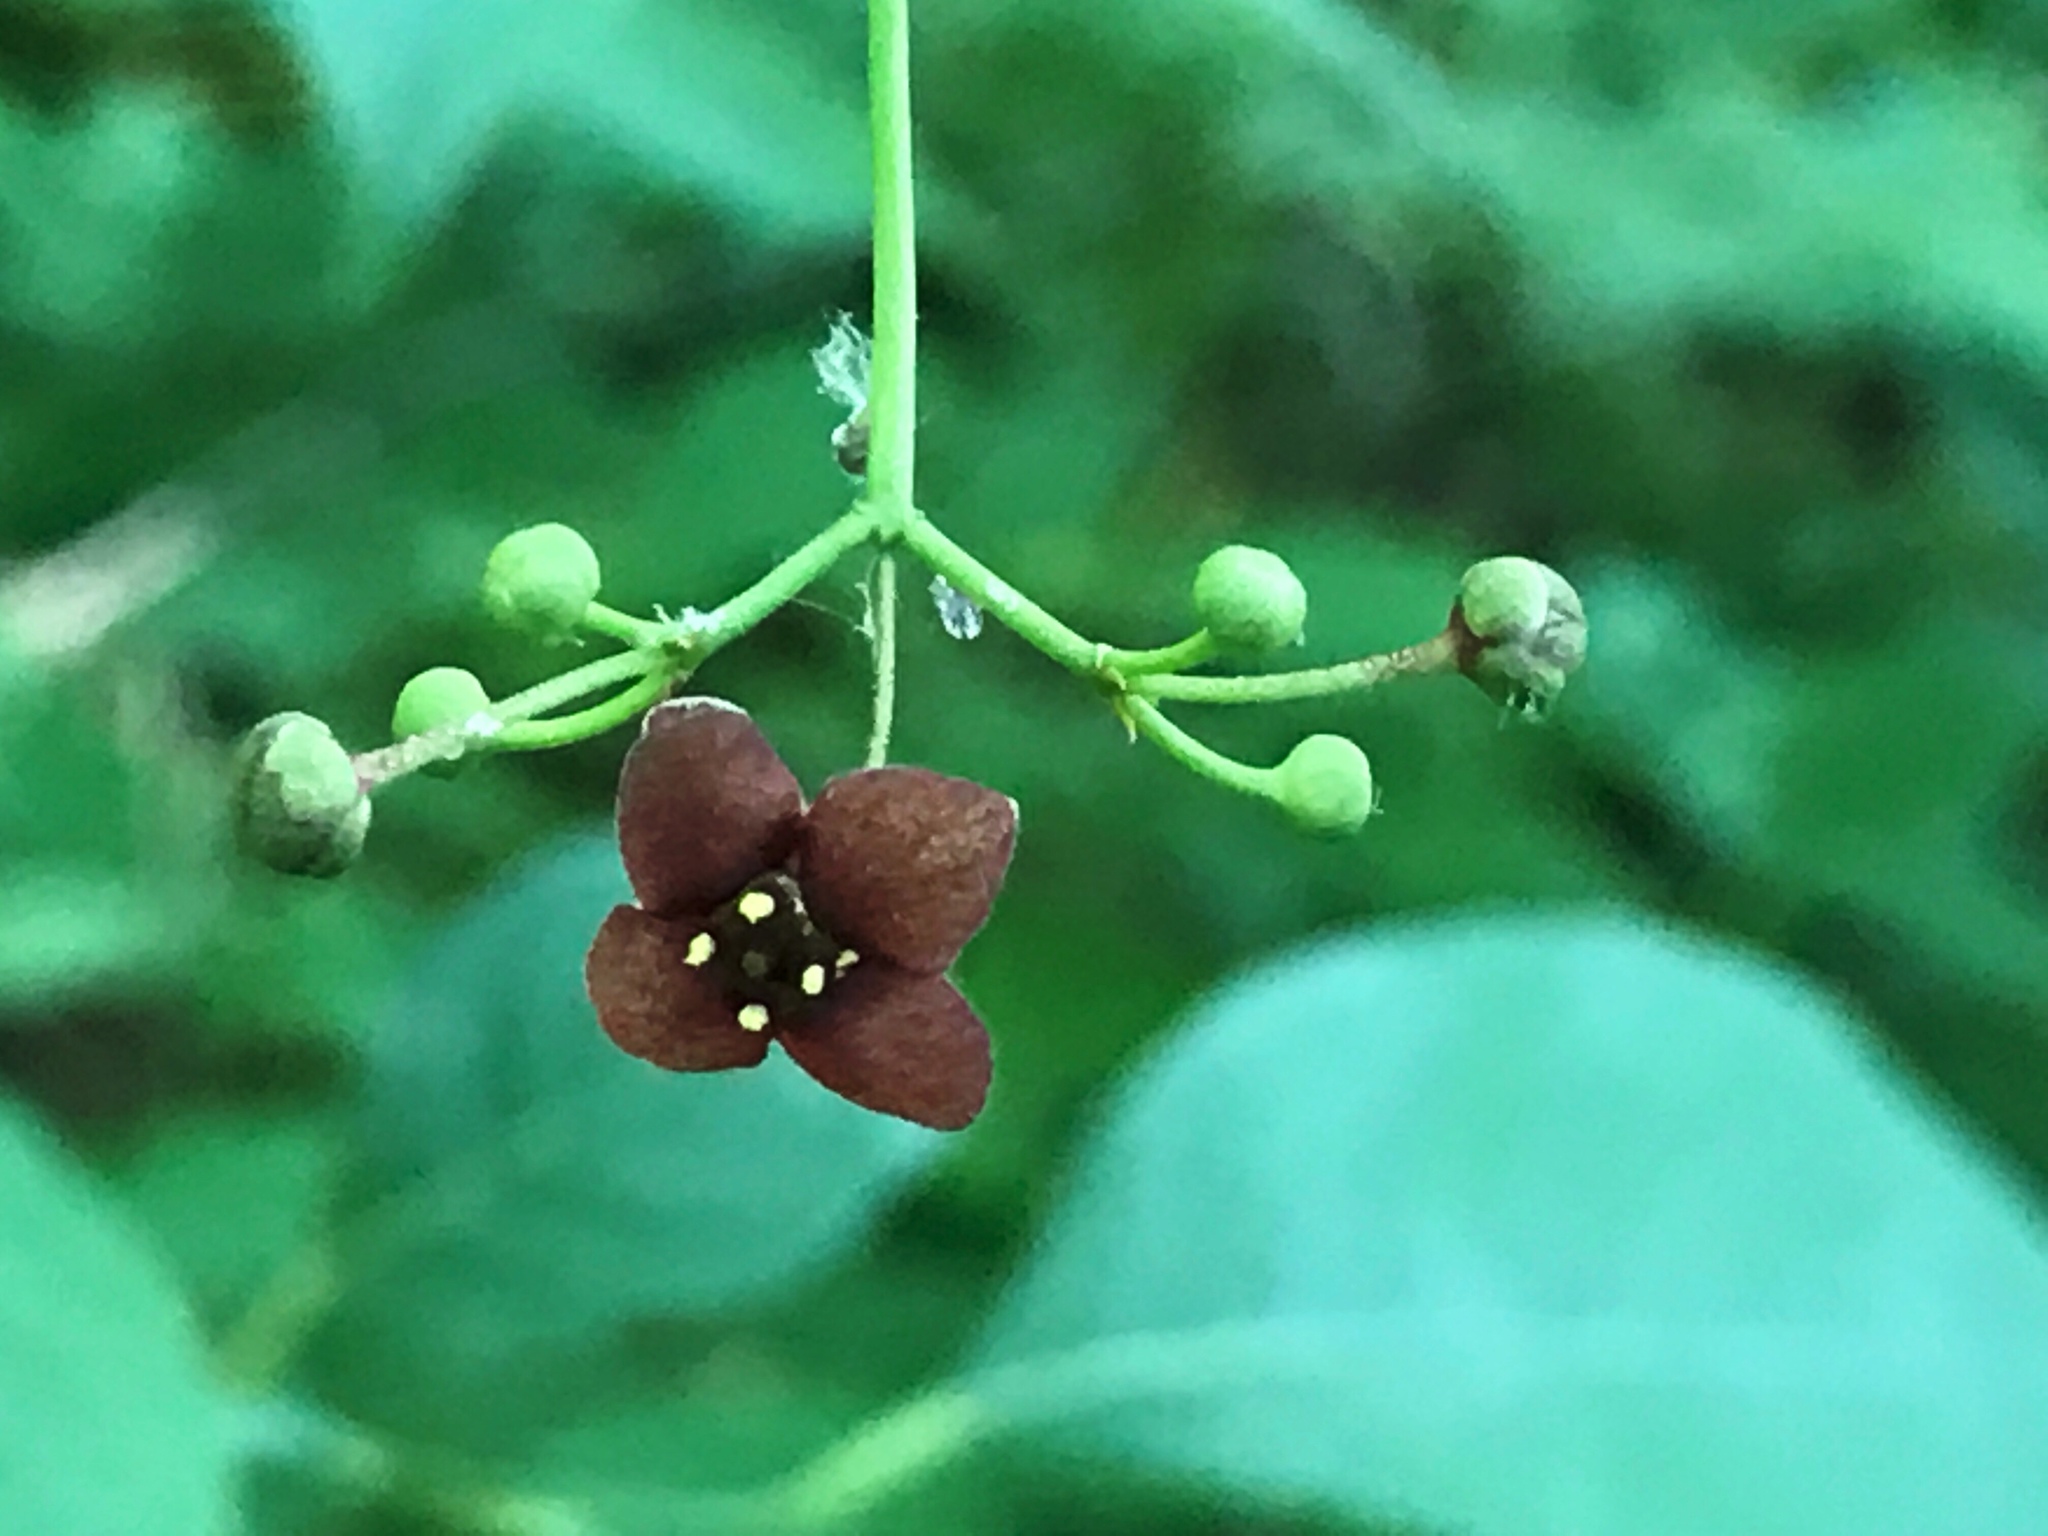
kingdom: Plantae
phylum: Tracheophyta
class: Magnoliopsida
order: Celastrales
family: Celastraceae
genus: Euonymus
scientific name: Euonymus atropurpureus
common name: Eastern wahoo
